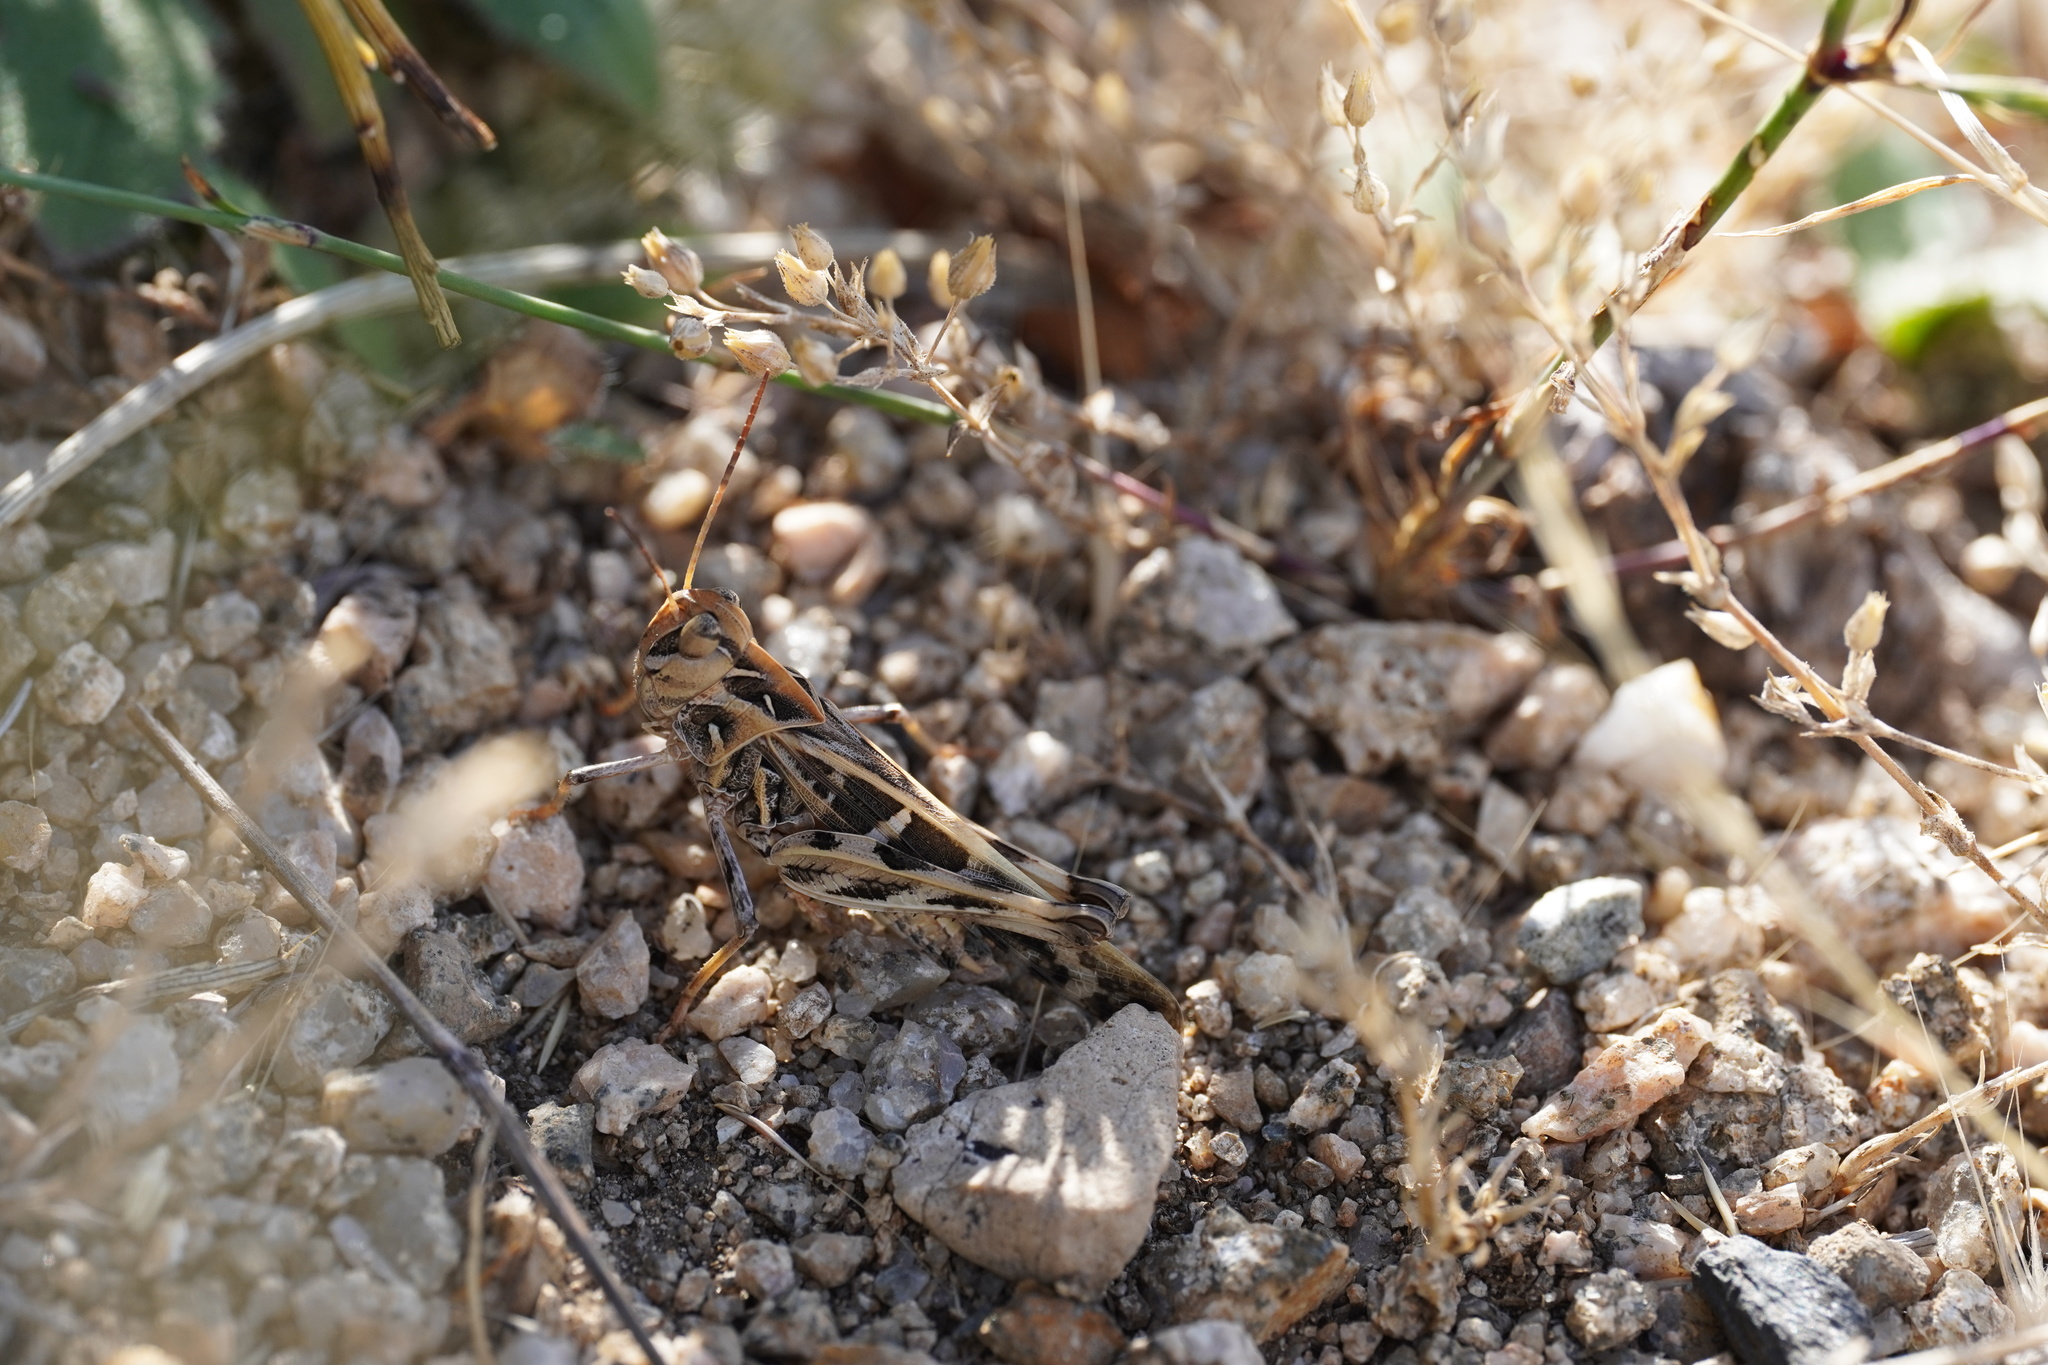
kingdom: Animalia
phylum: Arthropoda
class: Insecta
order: Orthoptera
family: Acrididae
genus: Oedaleus
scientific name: Oedaleus decorus
